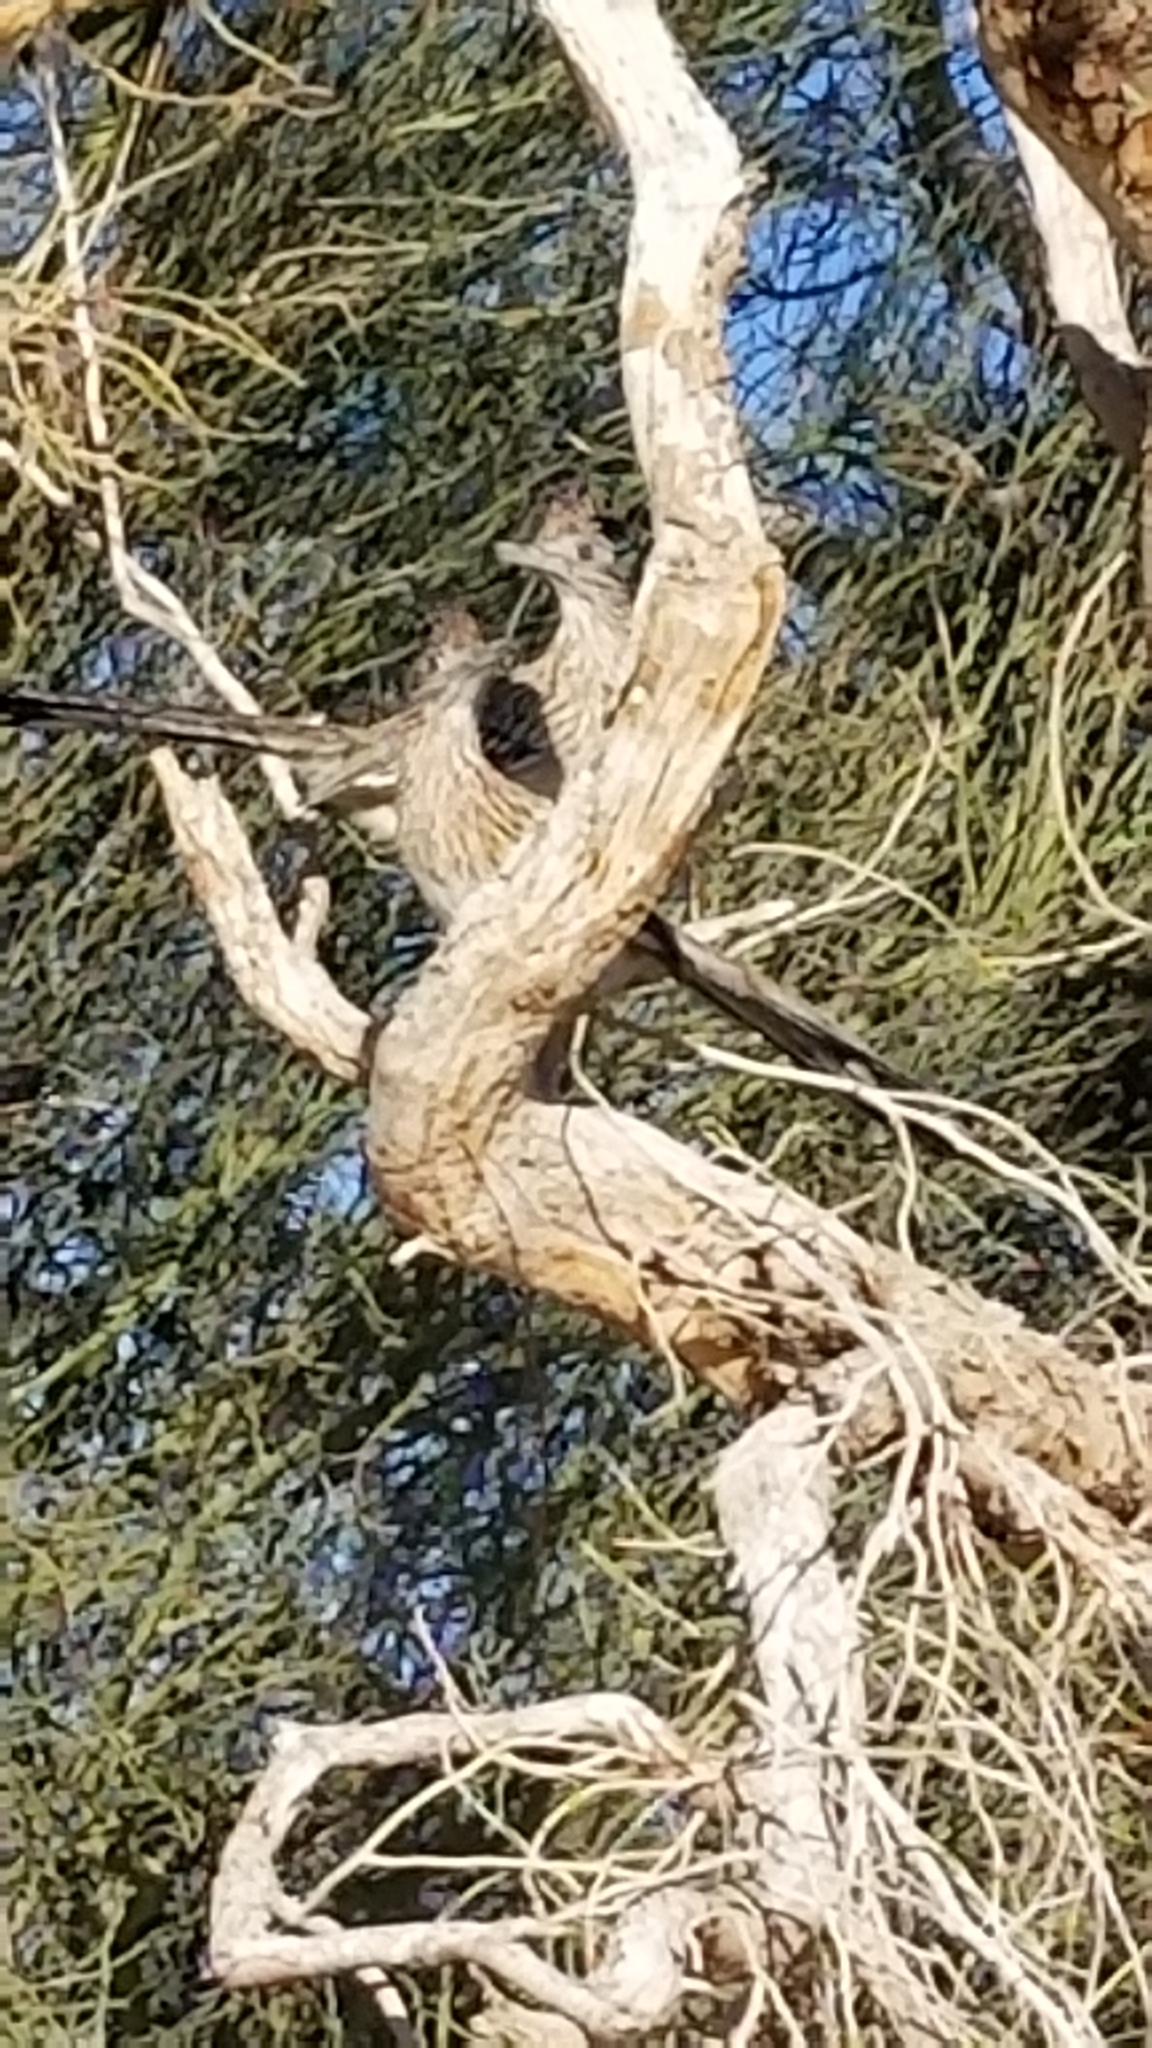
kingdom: Animalia
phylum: Chordata
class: Aves
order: Cuculiformes
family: Cuculidae
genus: Geococcyx
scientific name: Geococcyx californianus
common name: Greater roadrunner
